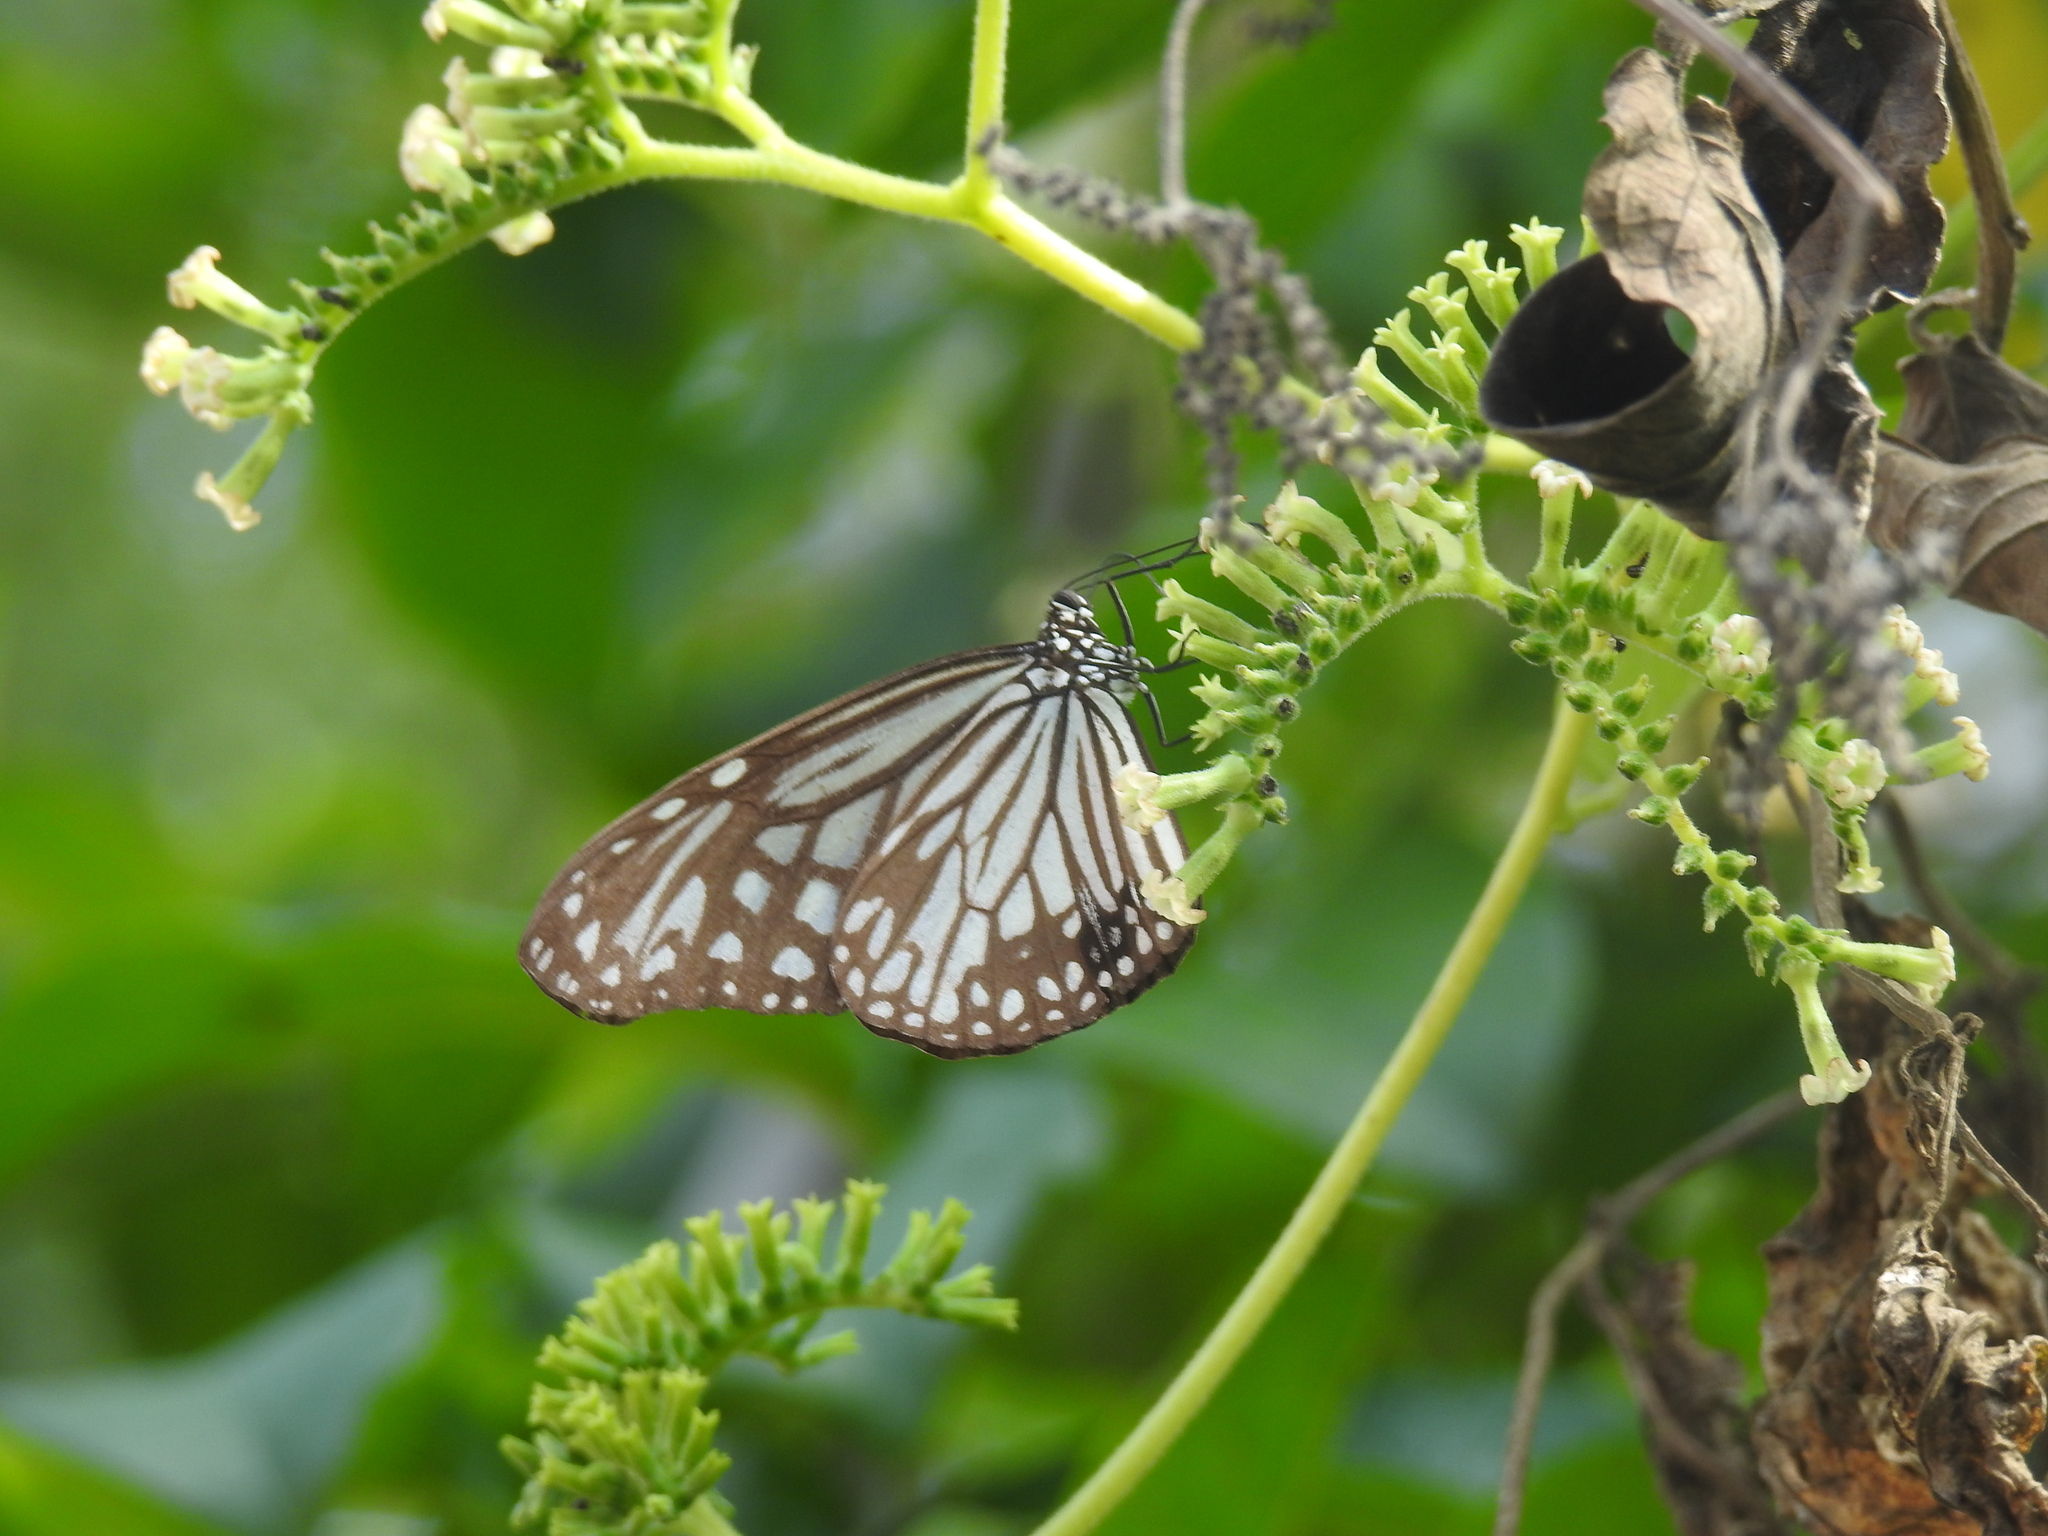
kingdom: Animalia
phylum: Arthropoda
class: Insecta
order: Lepidoptera
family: Nymphalidae
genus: Parantica
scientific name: Parantica aglea
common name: Glassy tiger
